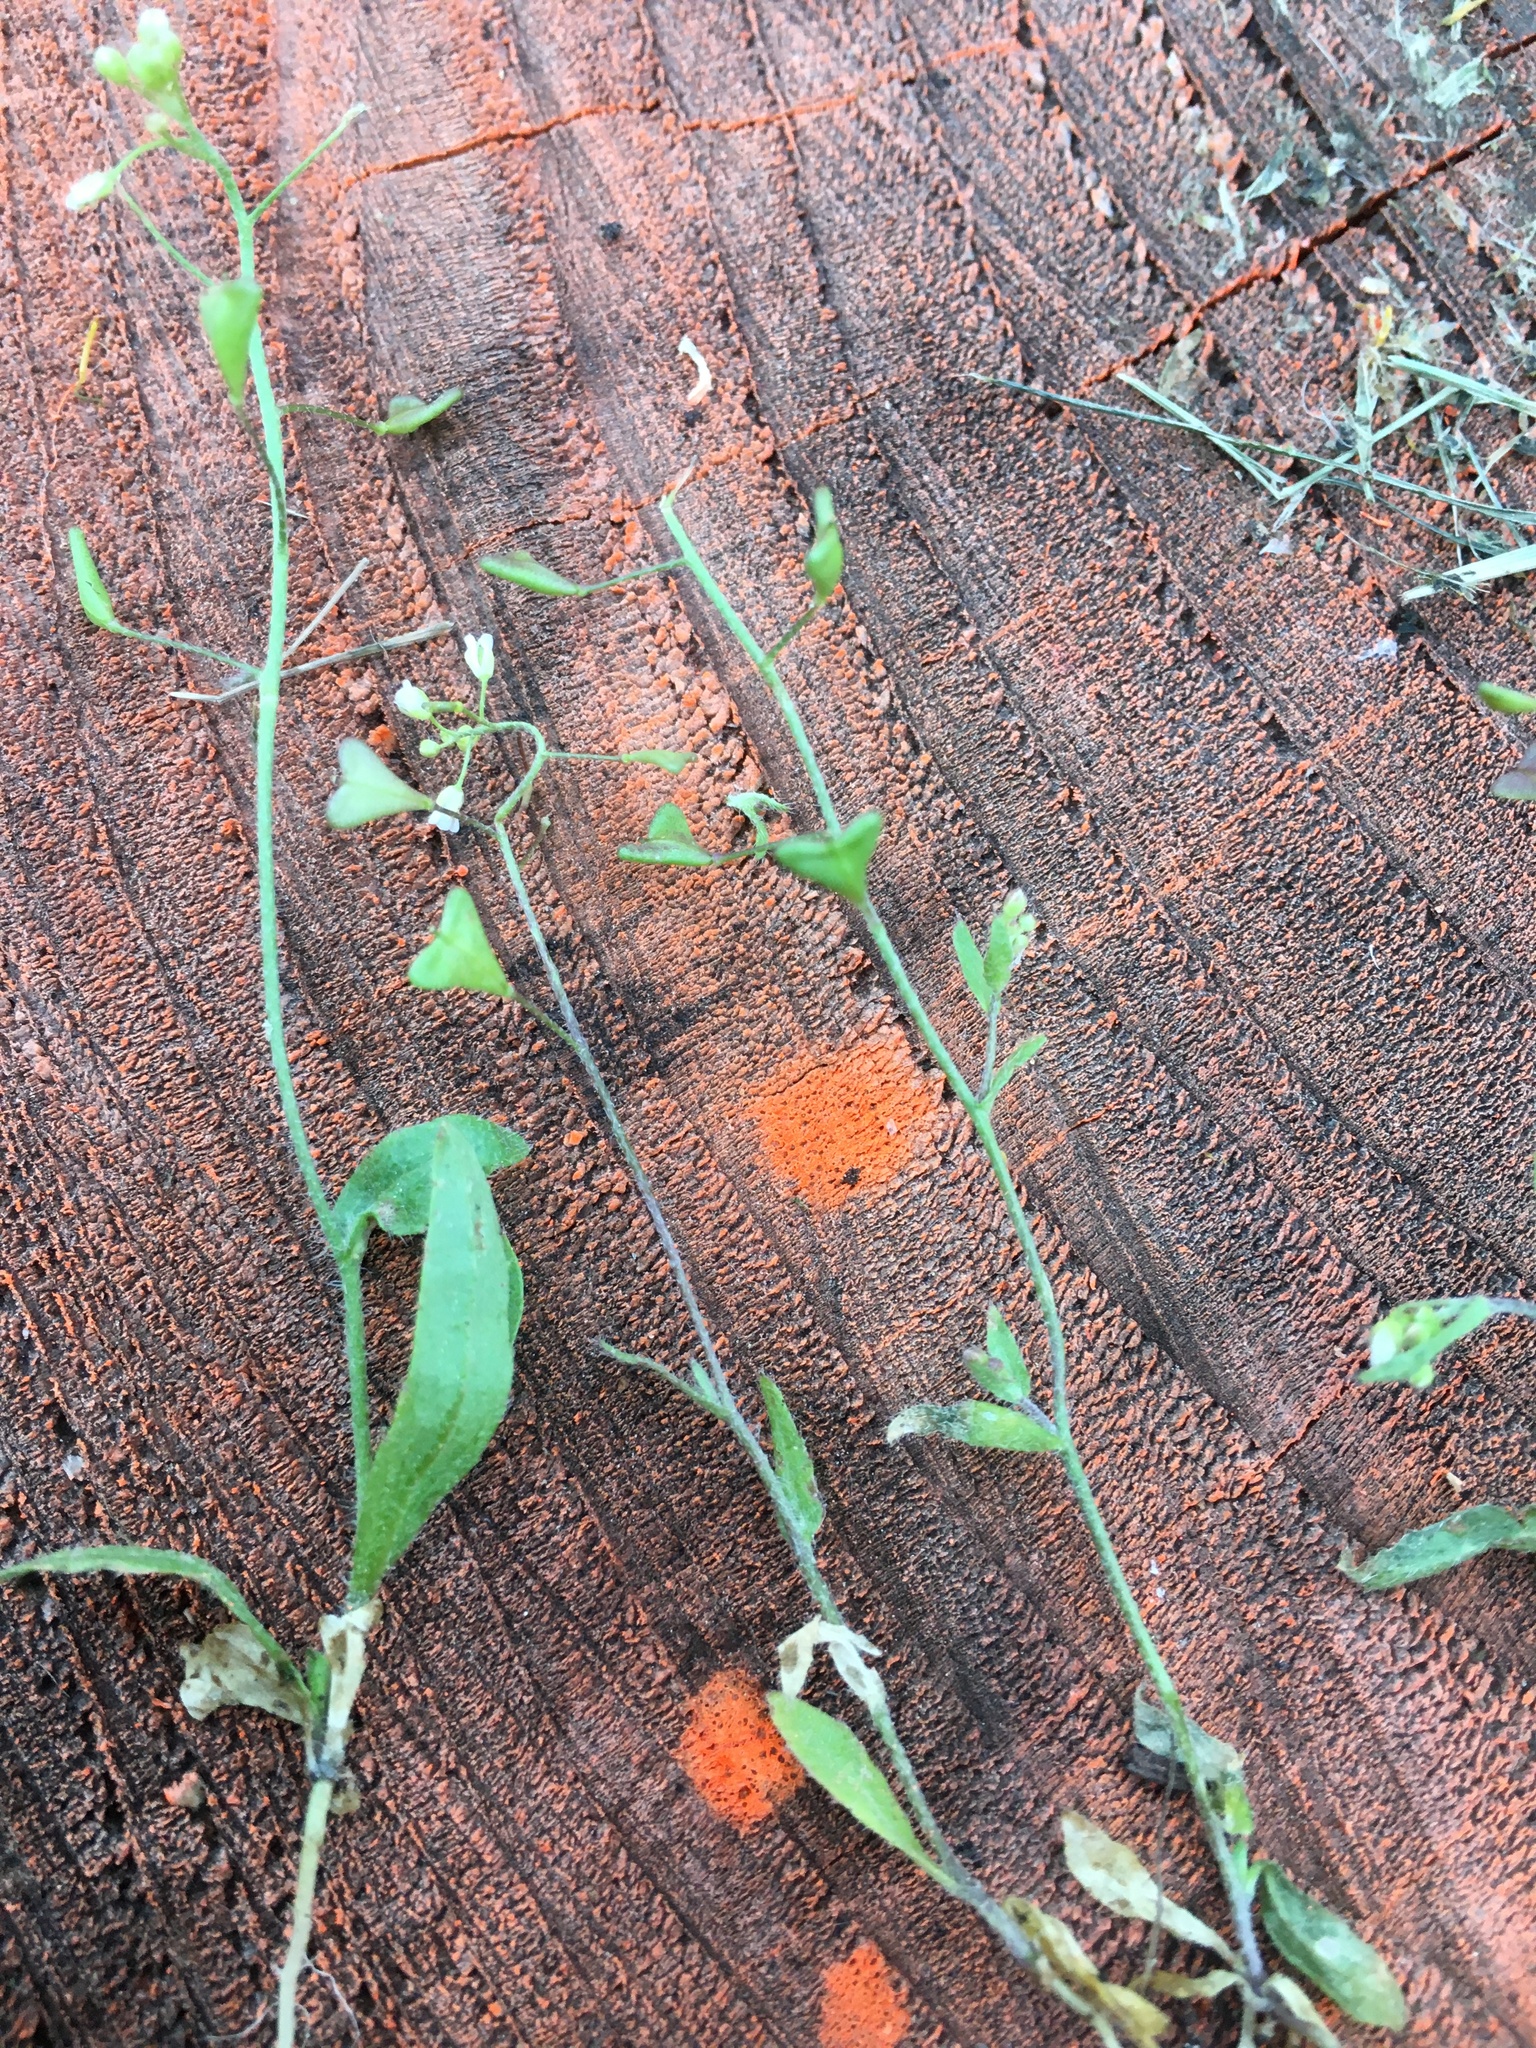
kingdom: Plantae
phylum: Tracheophyta
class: Magnoliopsida
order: Brassicales
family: Brassicaceae
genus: Capsella
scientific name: Capsella bursa-pastoris
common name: Shepherd's purse
